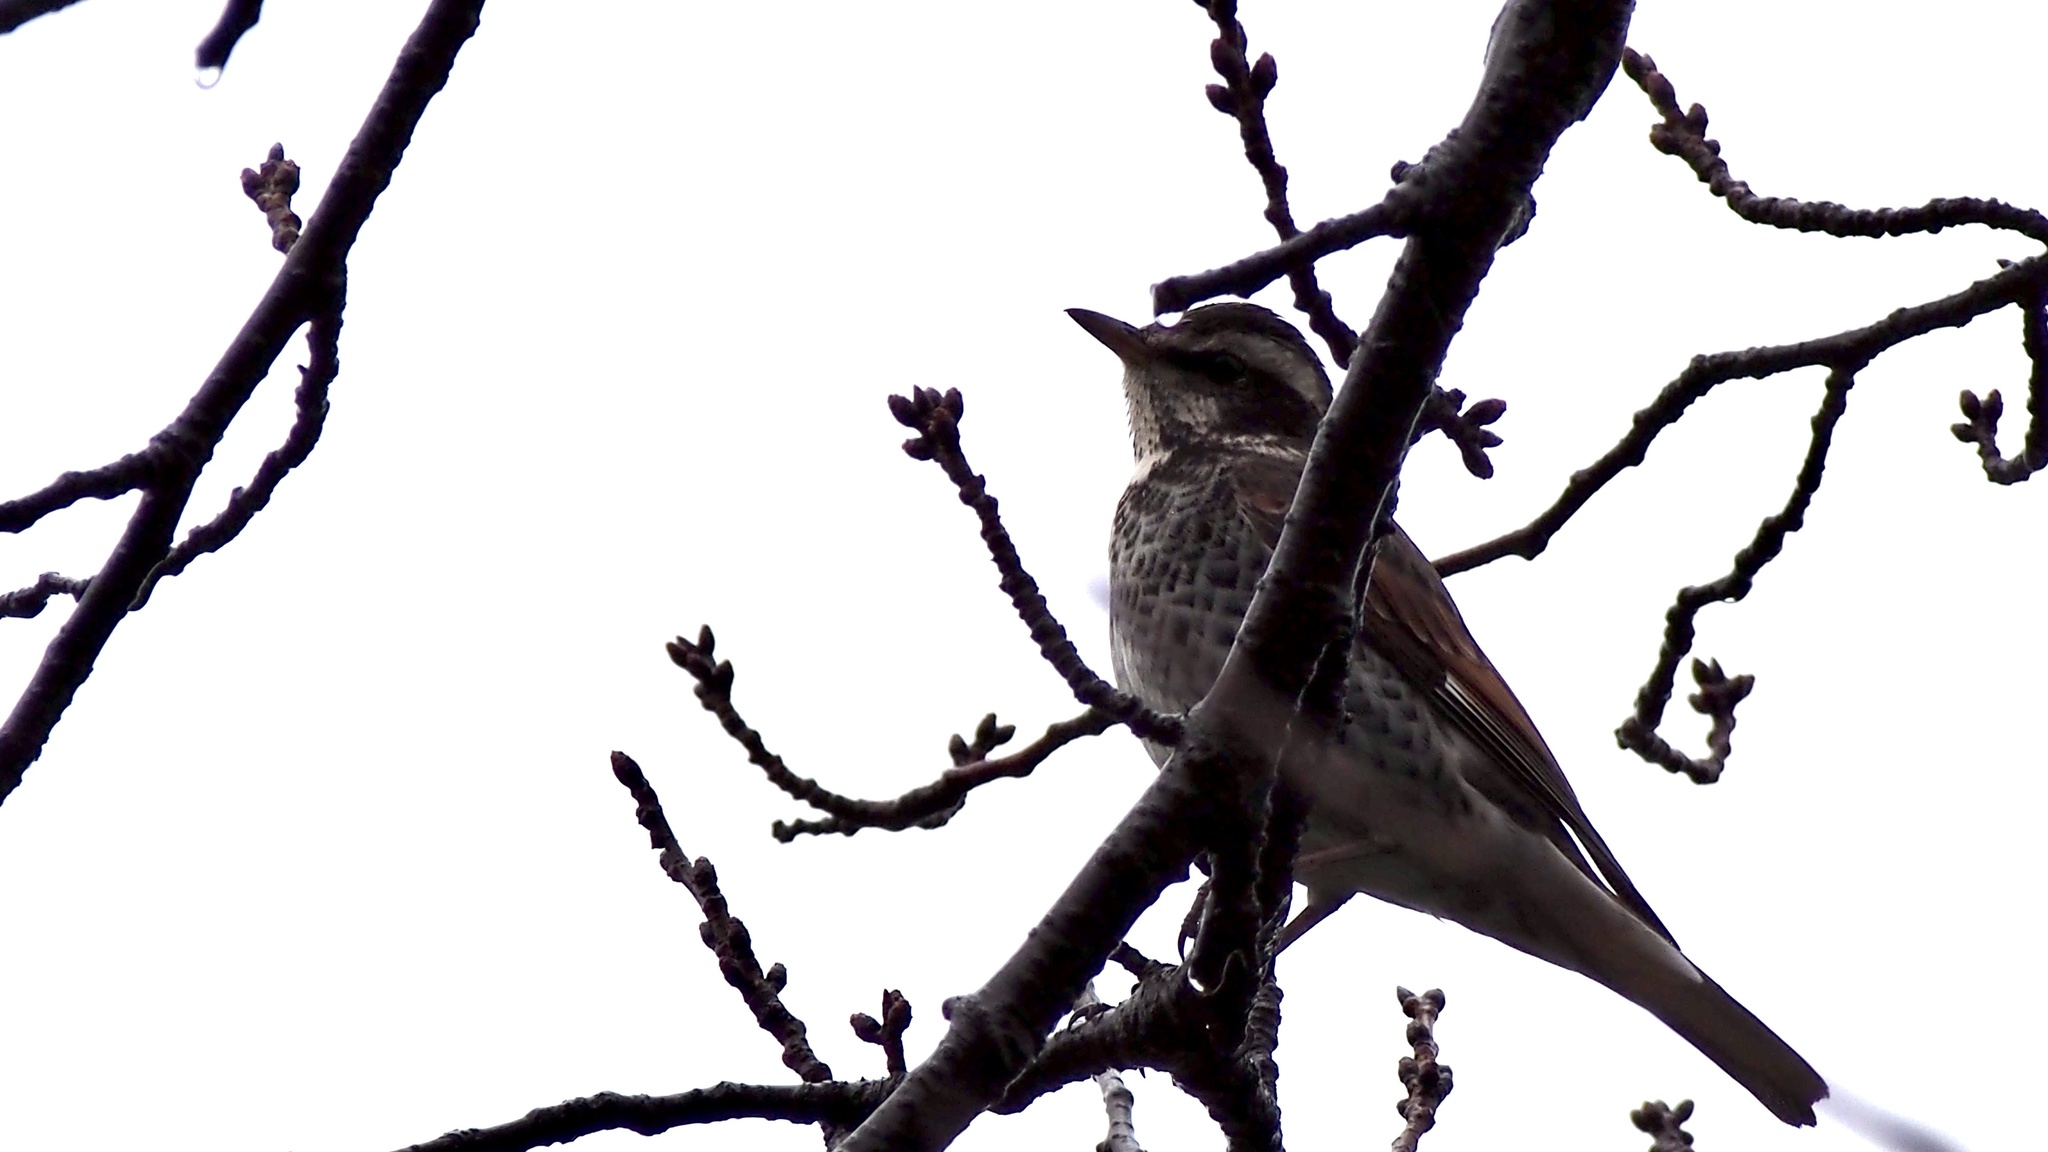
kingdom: Animalia
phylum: Chordata
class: Aves
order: Passeriformes
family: Turdidae
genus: Turdus
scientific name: Turdus eunomus
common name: Dusky thrush
